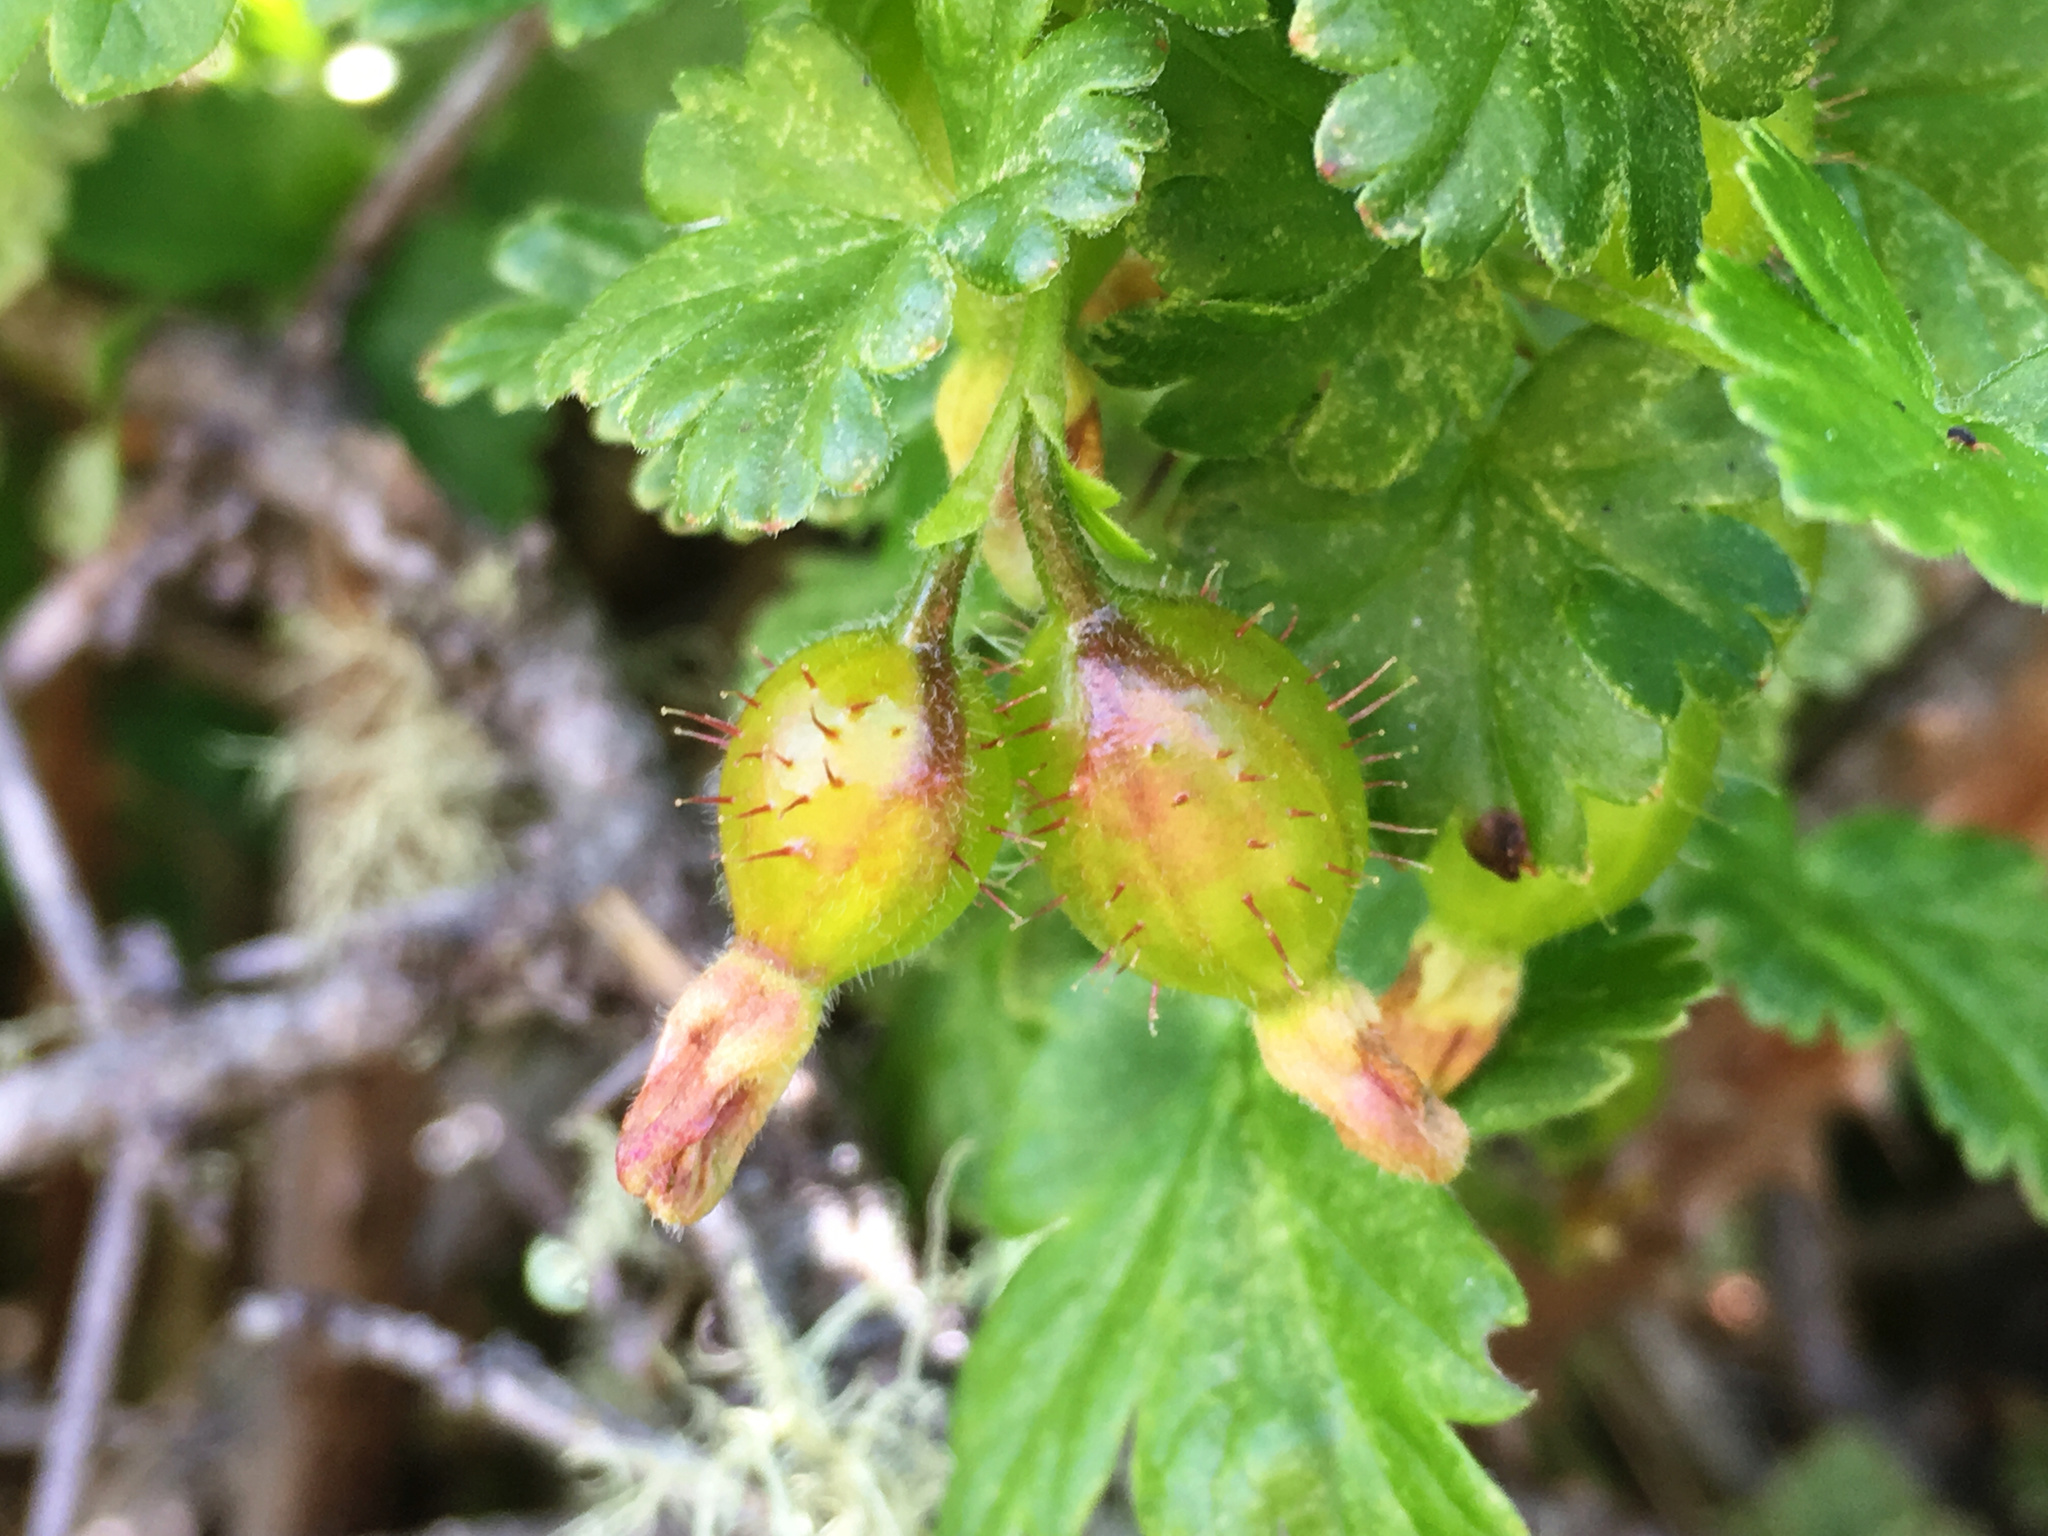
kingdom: Plantae
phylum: Tracheophyta
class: Magnoliopsida
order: Saxifragales
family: Grossulariaceae
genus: Ribes
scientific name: Ribes uva-crispa
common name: Gooseberry
